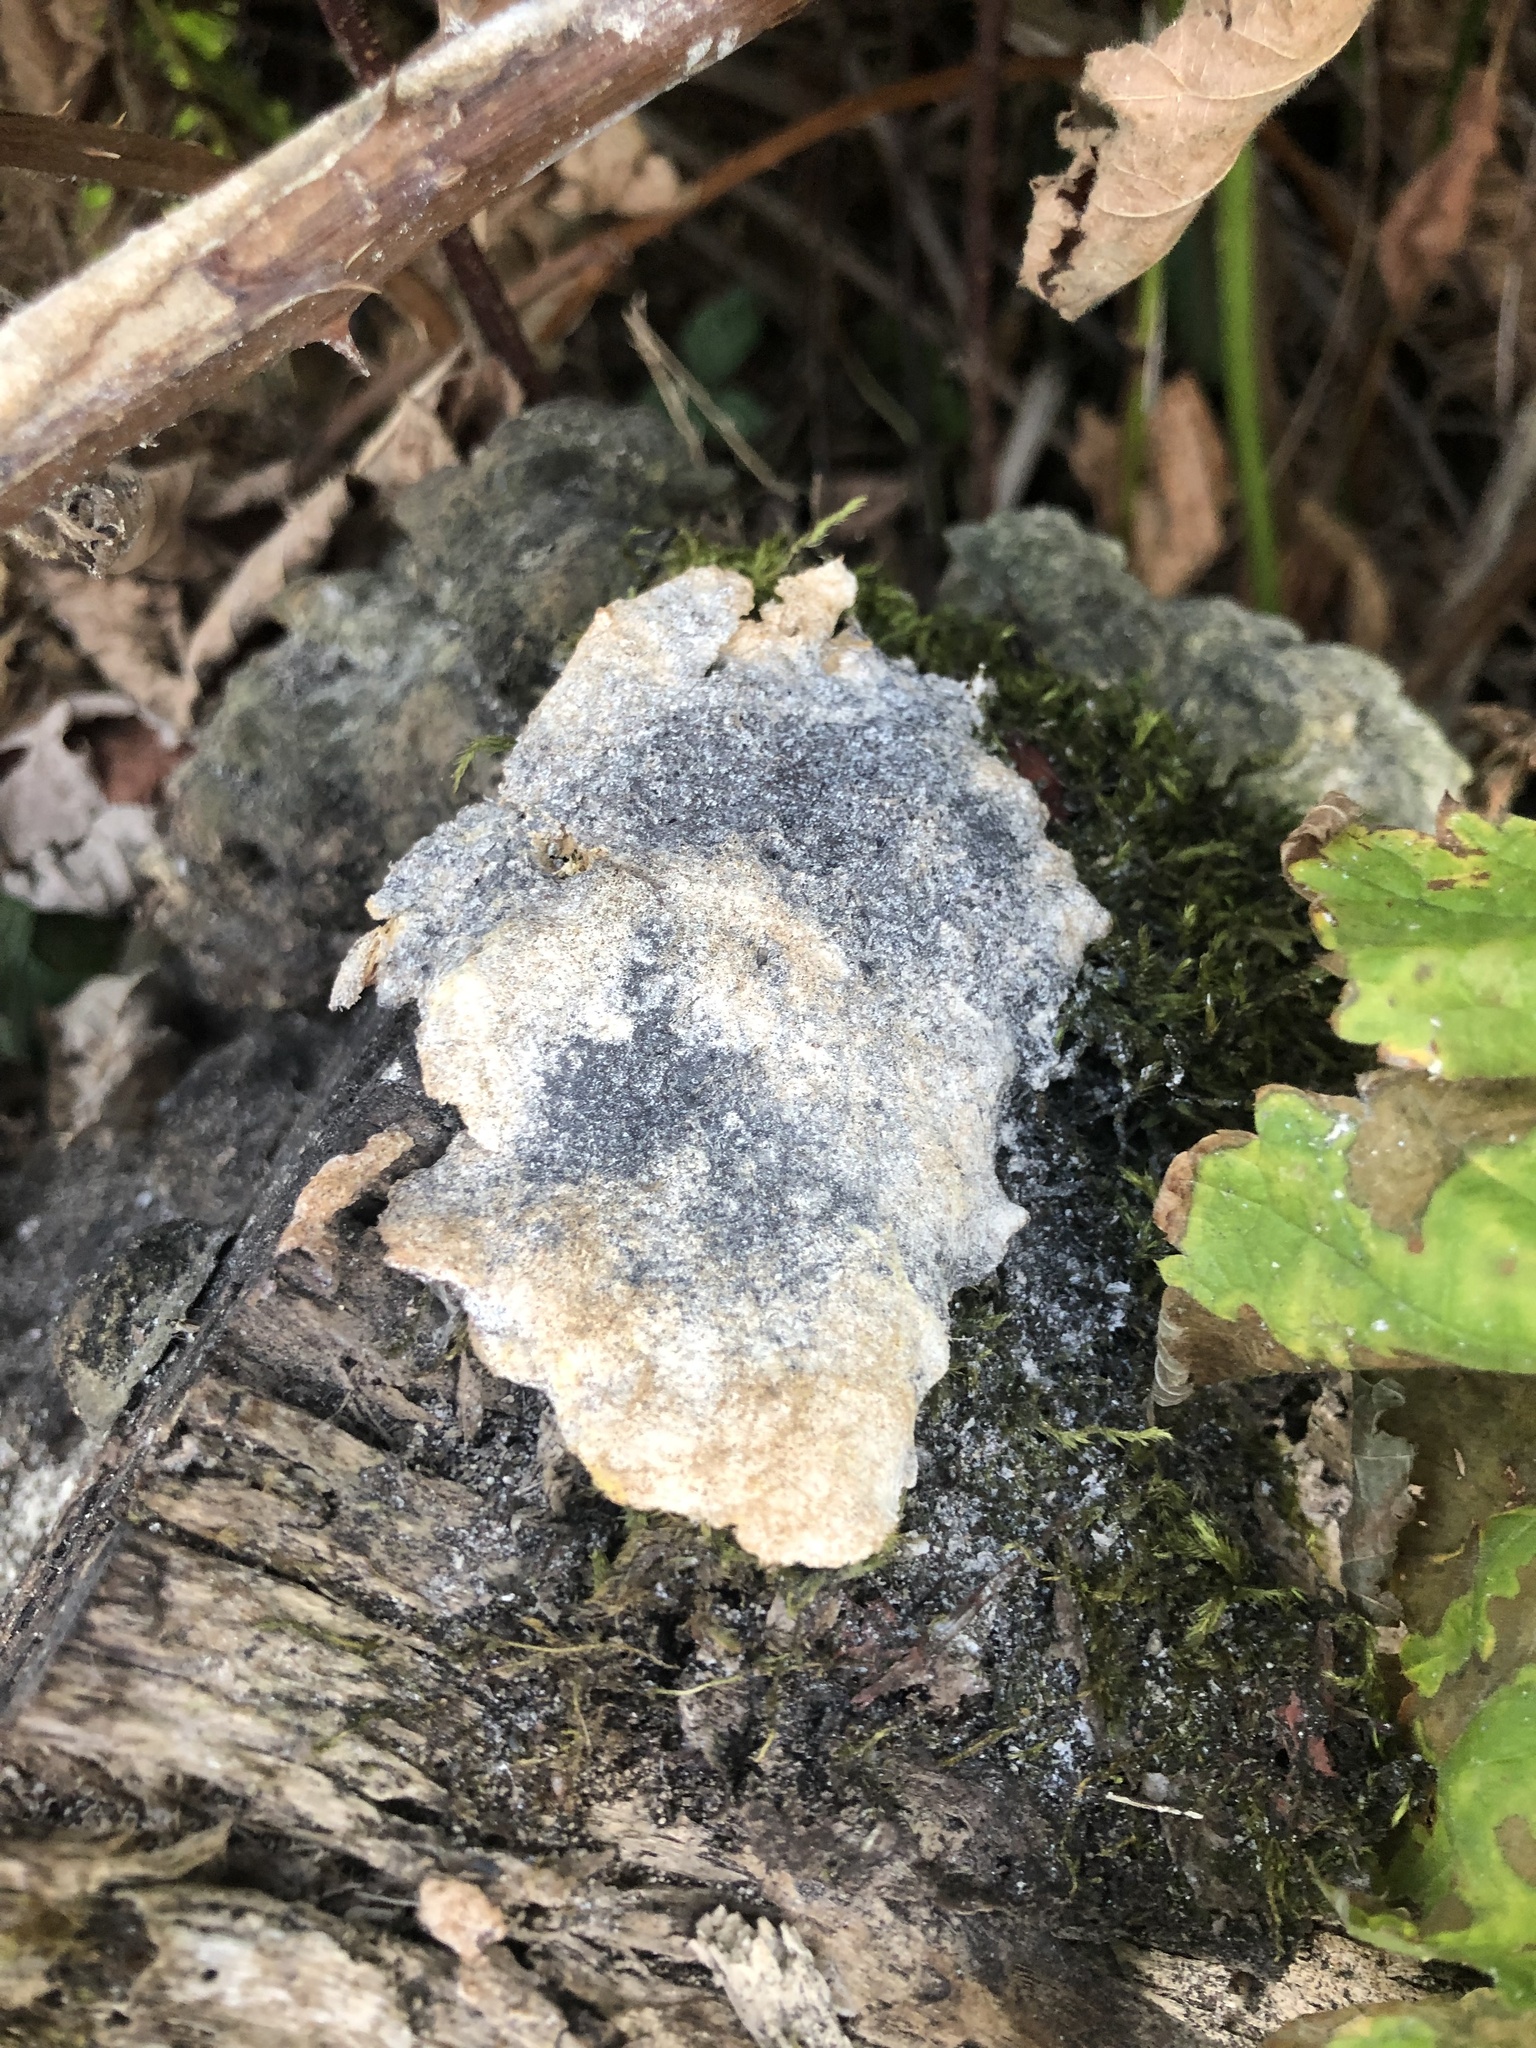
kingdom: Protozoa
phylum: Mycetozoa
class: Myxomycetes
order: Physarales
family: Physaraceae
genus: Fuligo
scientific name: Fuligo septica
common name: Dog vomit slime mold
